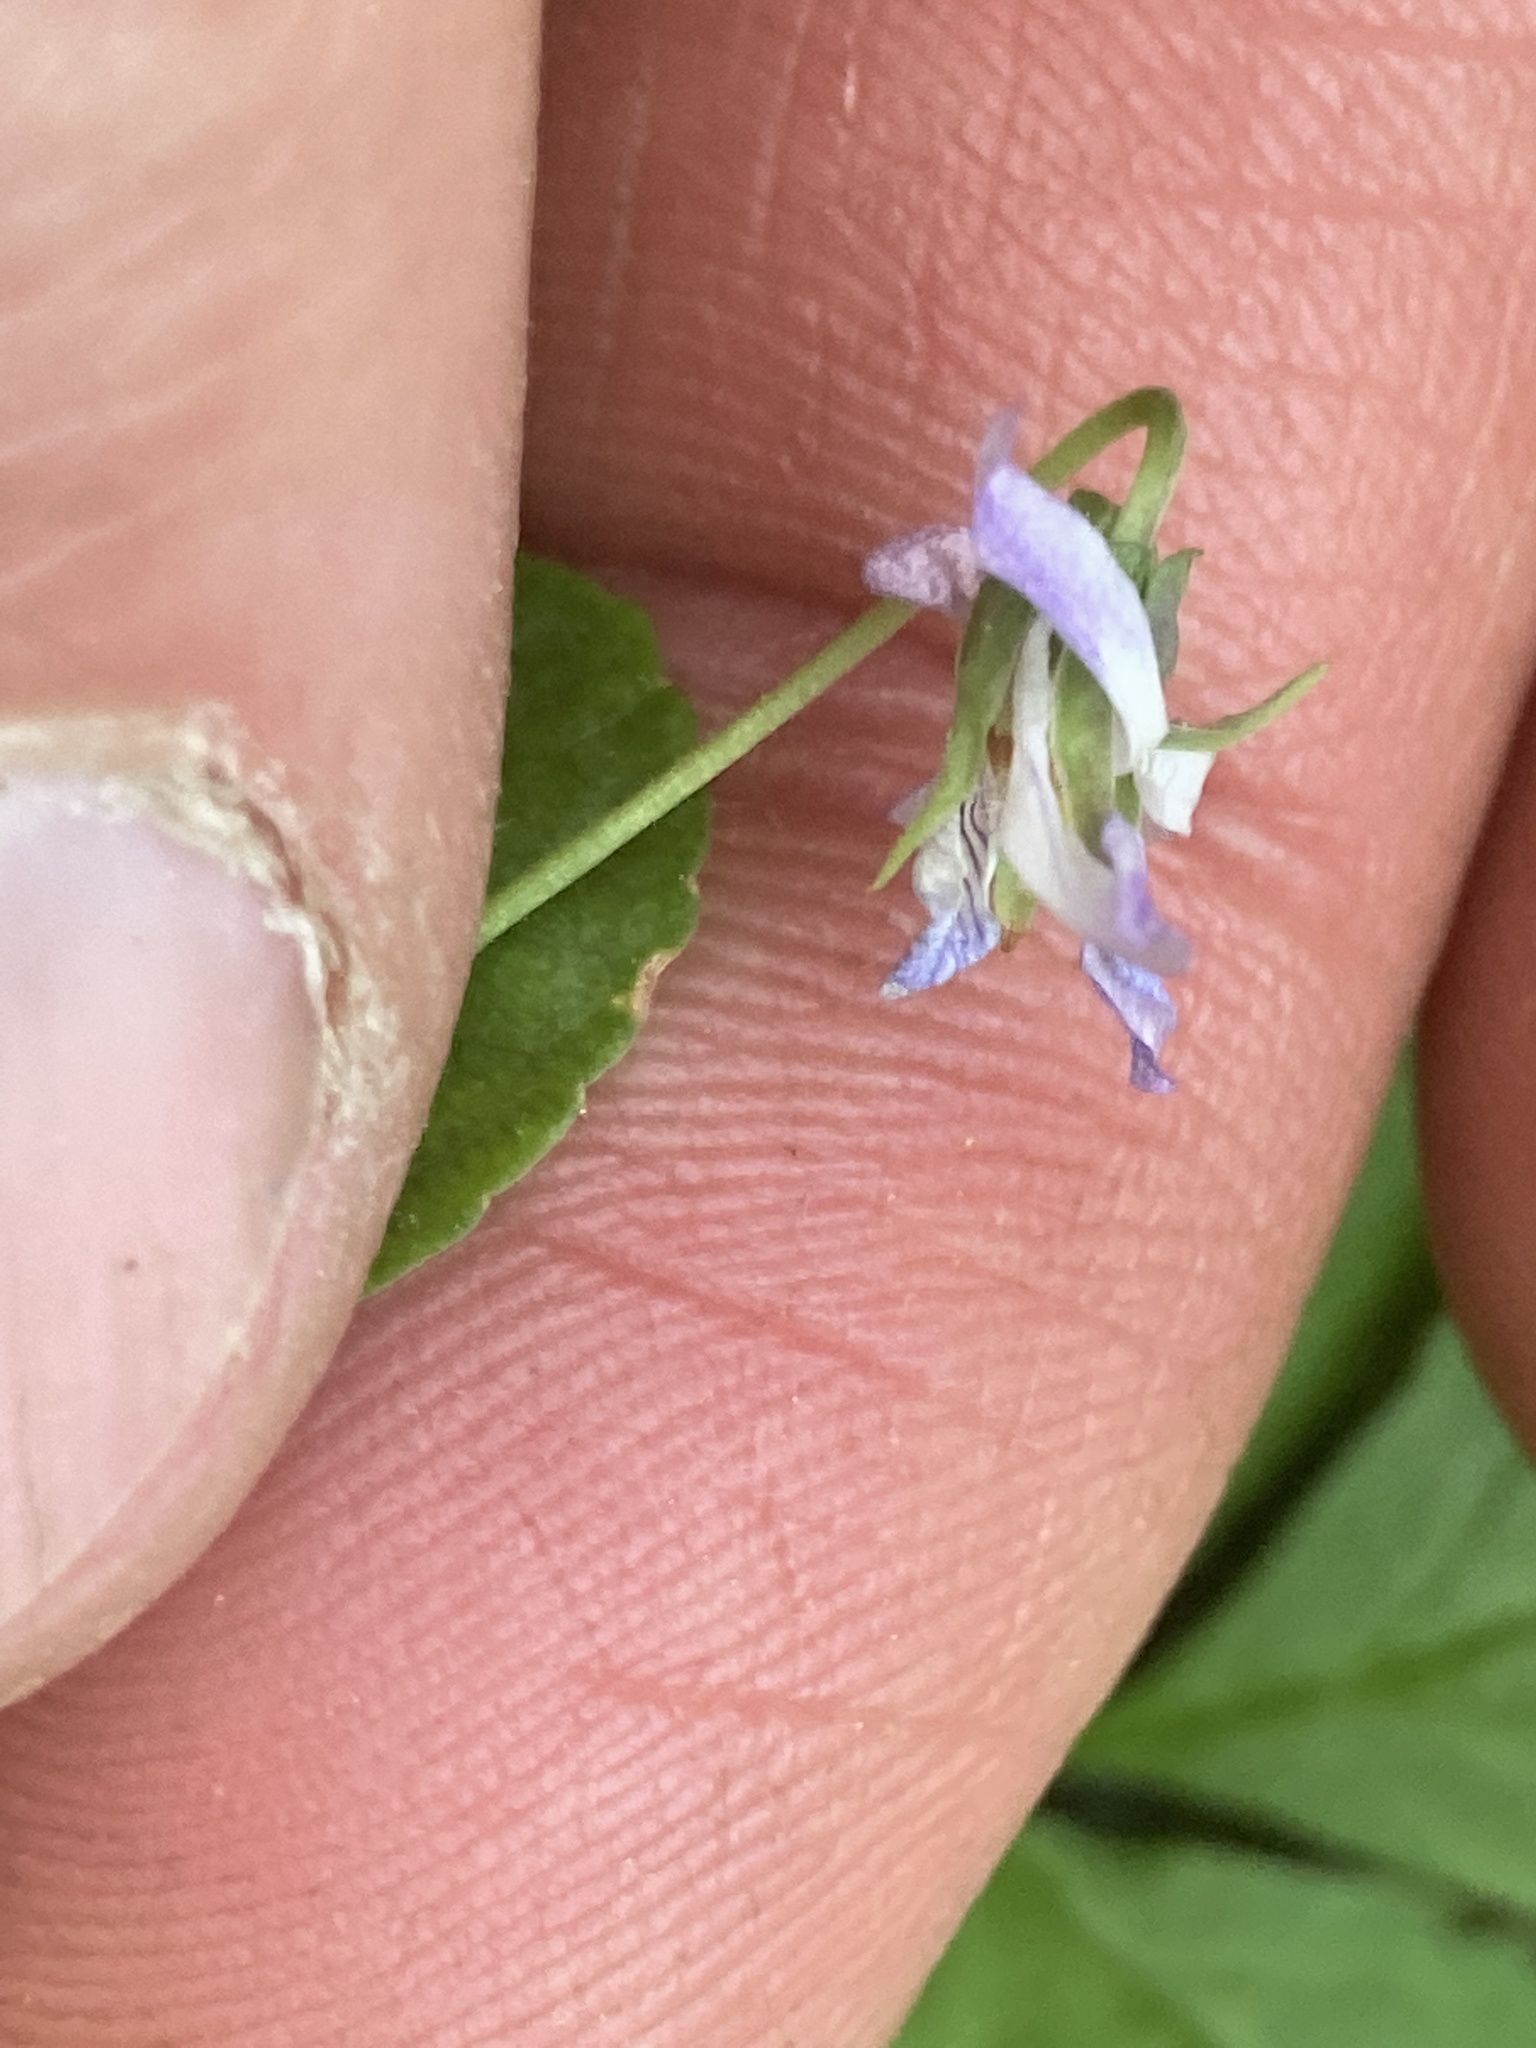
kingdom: Plantae
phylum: Tracheophyta
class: Magnoliopsida
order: Malpighiales
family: Violaceae
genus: Viola
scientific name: Viola labradorica
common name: Labrador violet
